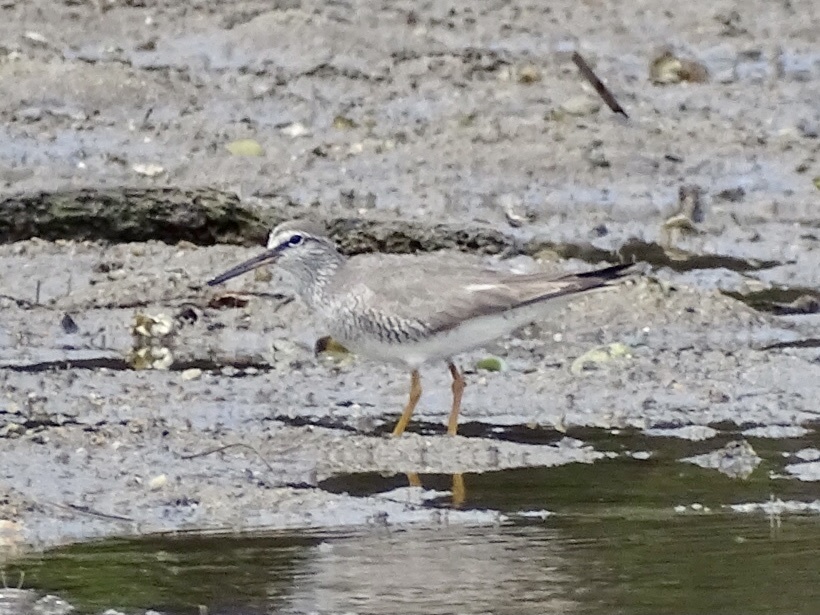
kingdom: Animalia
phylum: Chordata
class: Aves
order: Charadriiformes
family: Scolopacidae
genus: Tringa
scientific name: Tringa brevipes
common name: Grey-tailed tattler
